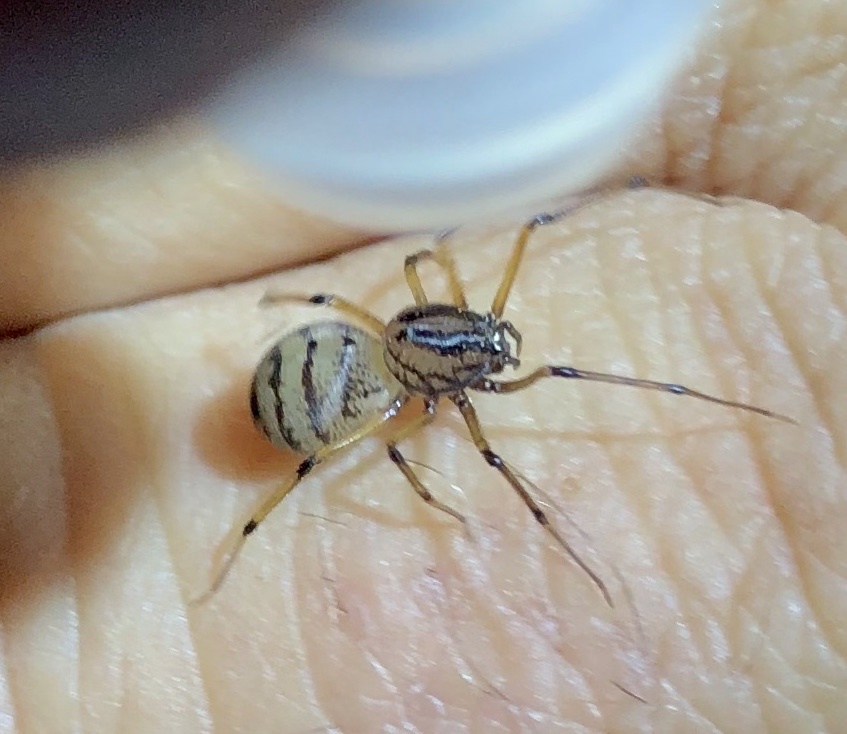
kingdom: Animalia
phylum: Arthropoda
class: Arachnida
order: Araneae
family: Scytodidae
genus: Dictis
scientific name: Dictis striatipes
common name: Spider
